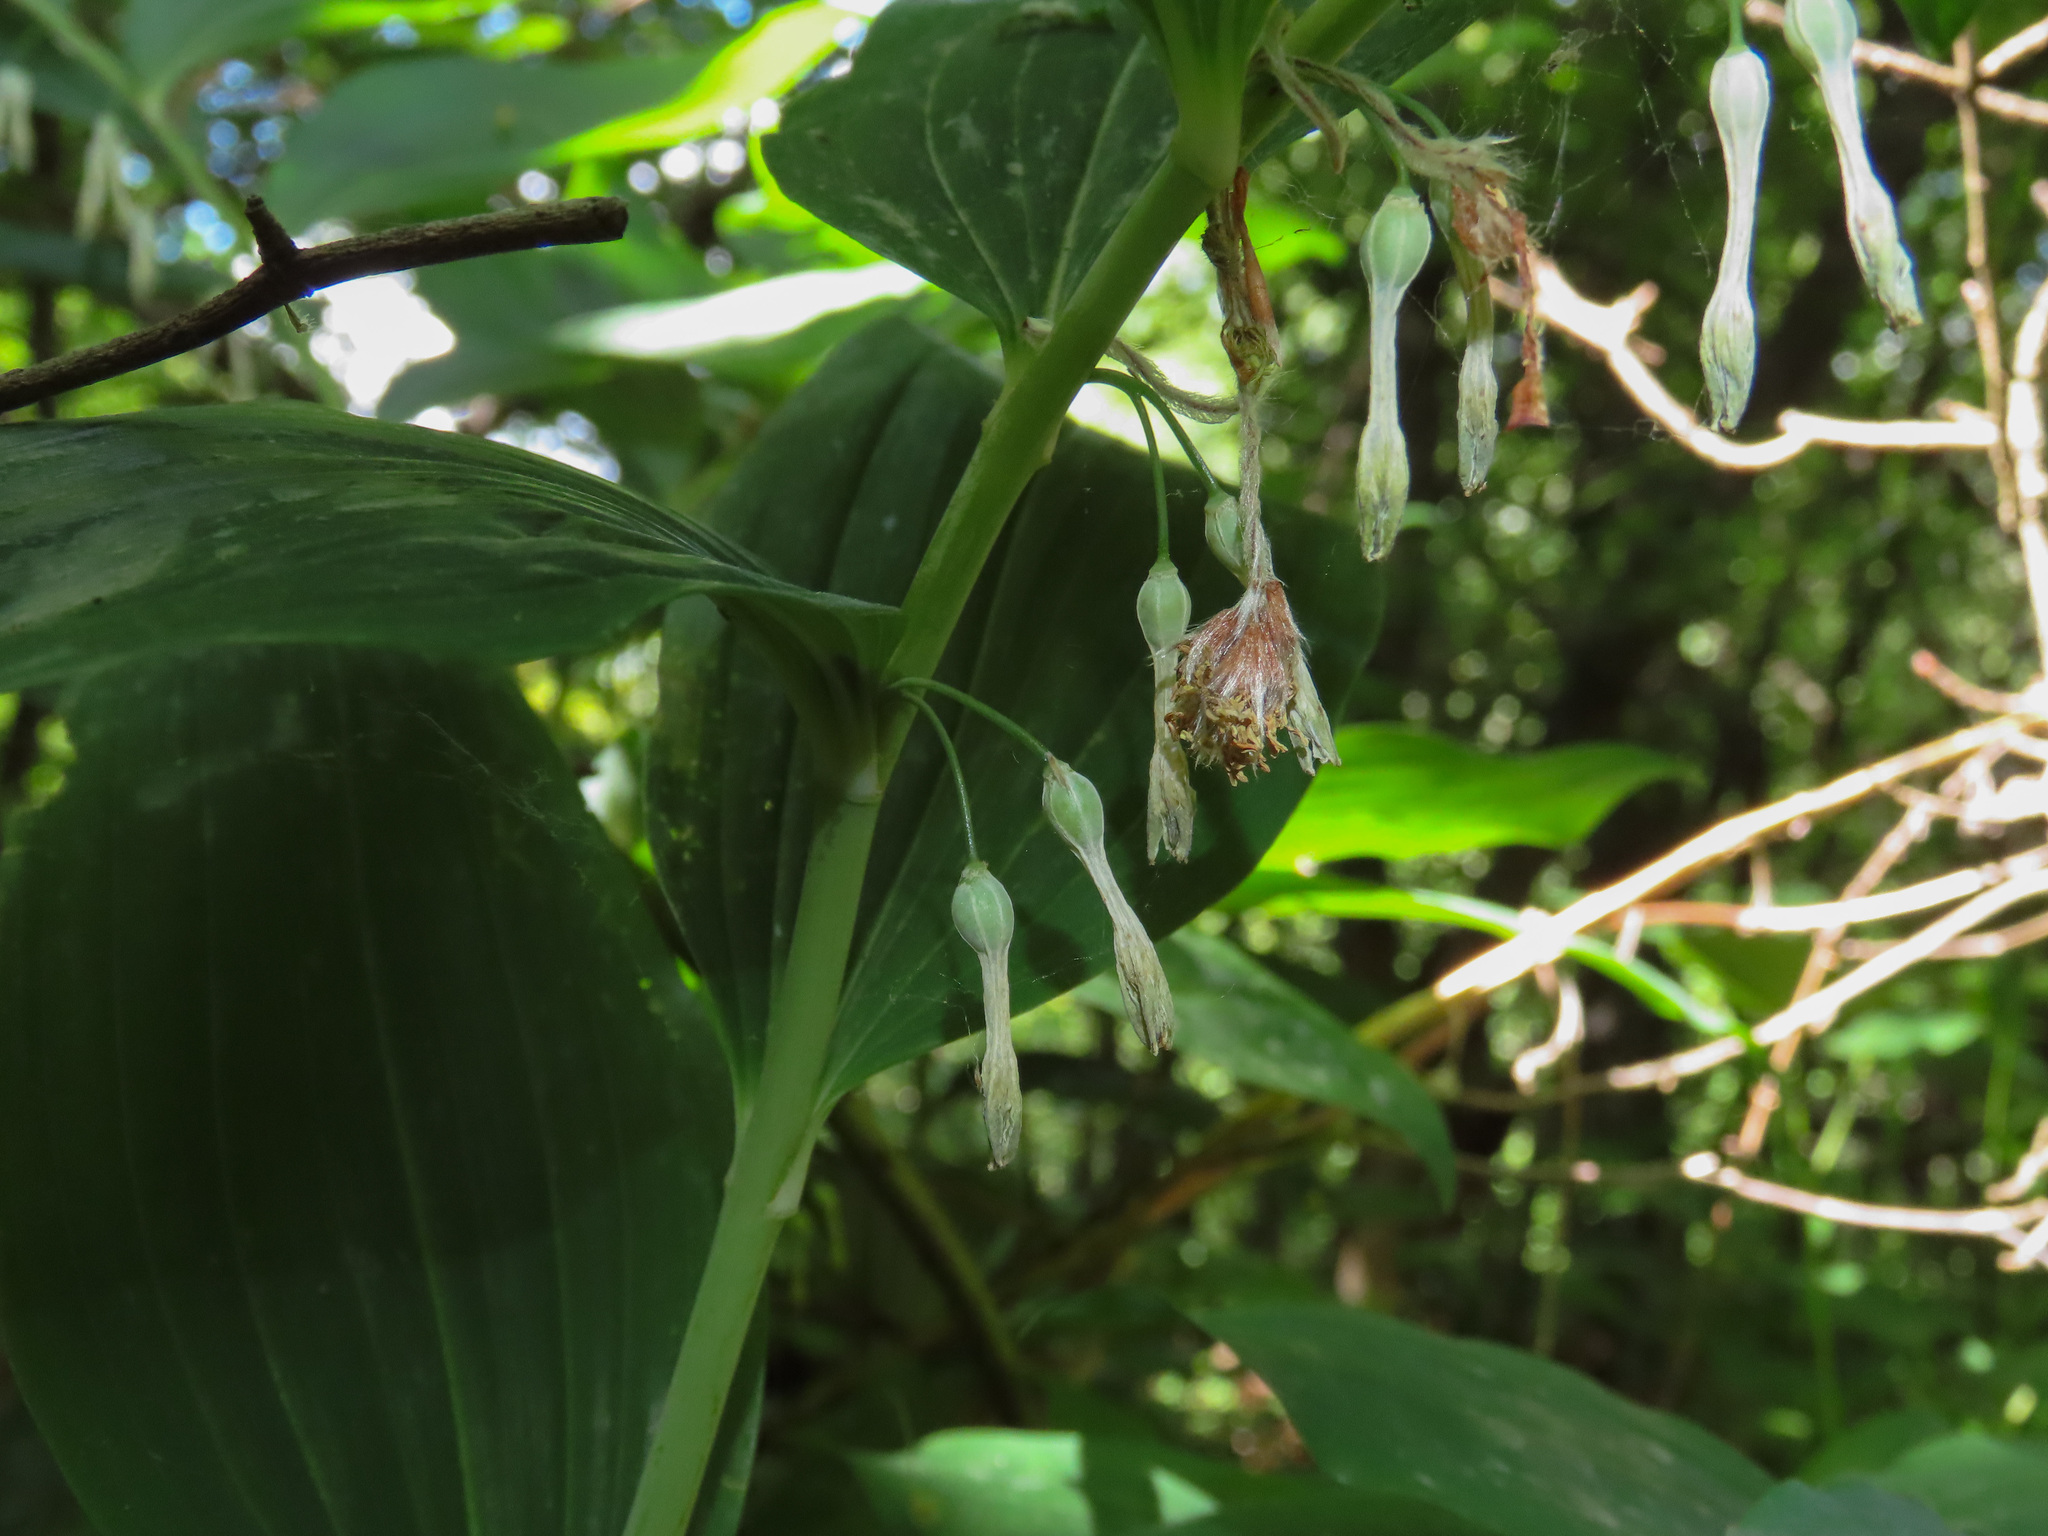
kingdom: Plantae
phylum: Tracheophyta
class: Liliopsida
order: Asparagales
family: Asparagaceae
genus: Polygonatum
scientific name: Polygonatum multiflorum
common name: Solomon's-seal
